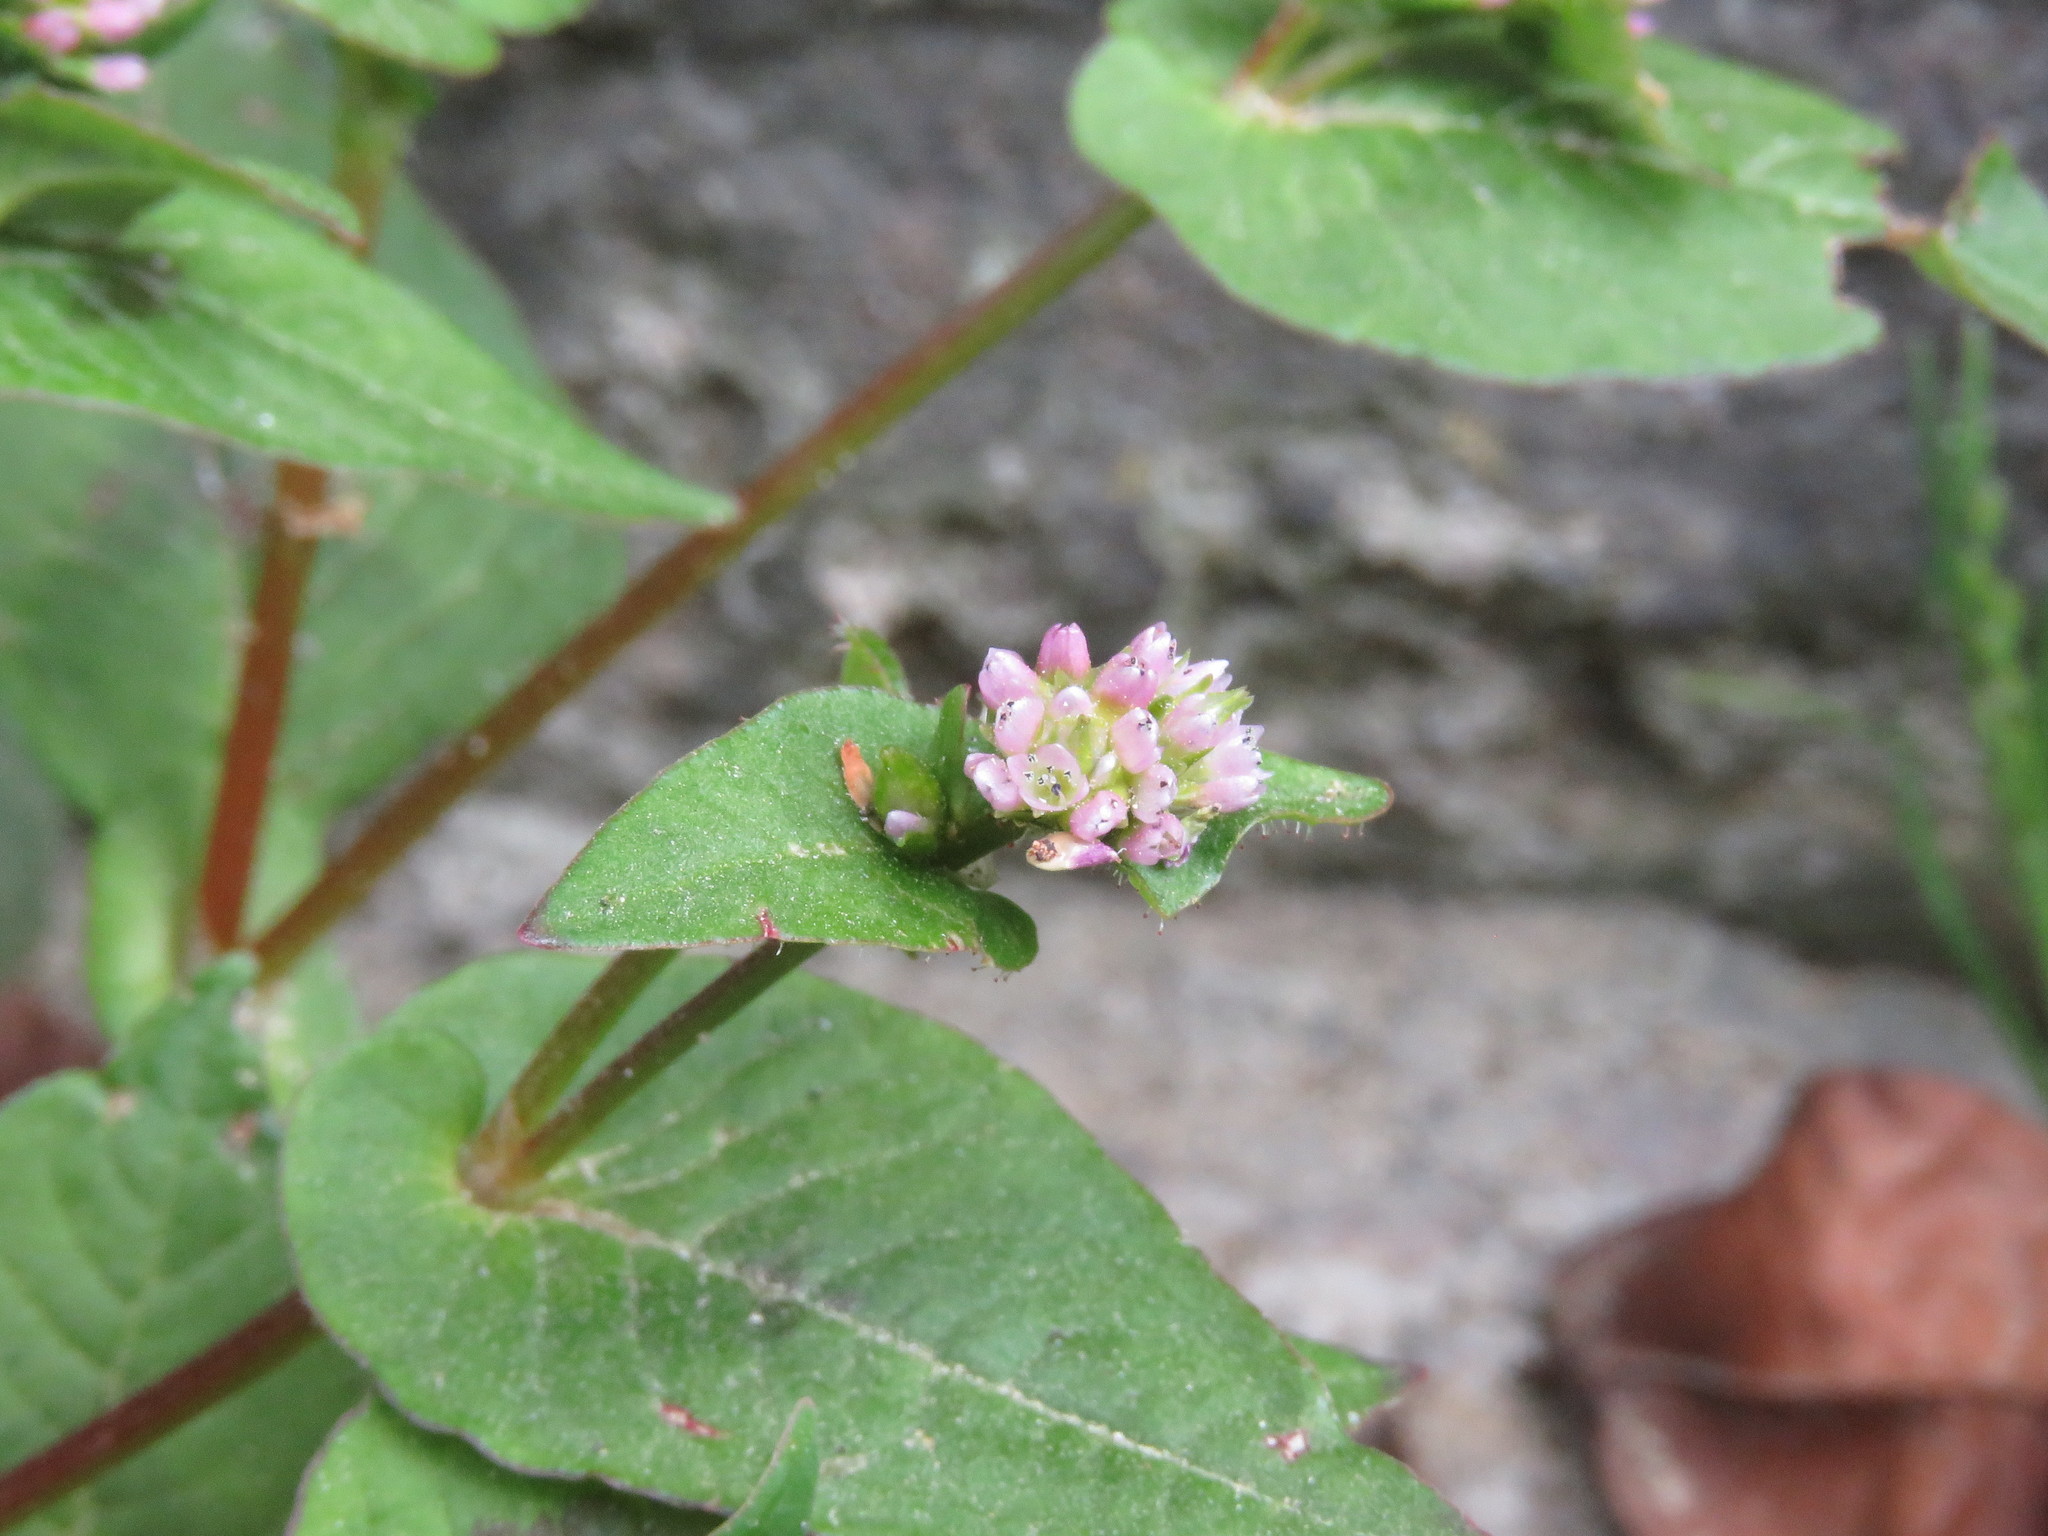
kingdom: Plantae
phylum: Tracheophyta
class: Magnoliopsida
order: Caryophyllales
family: Polygonaceae
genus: Persicaria
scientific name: Persicaria nepalensis
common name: Nepal persicaria
